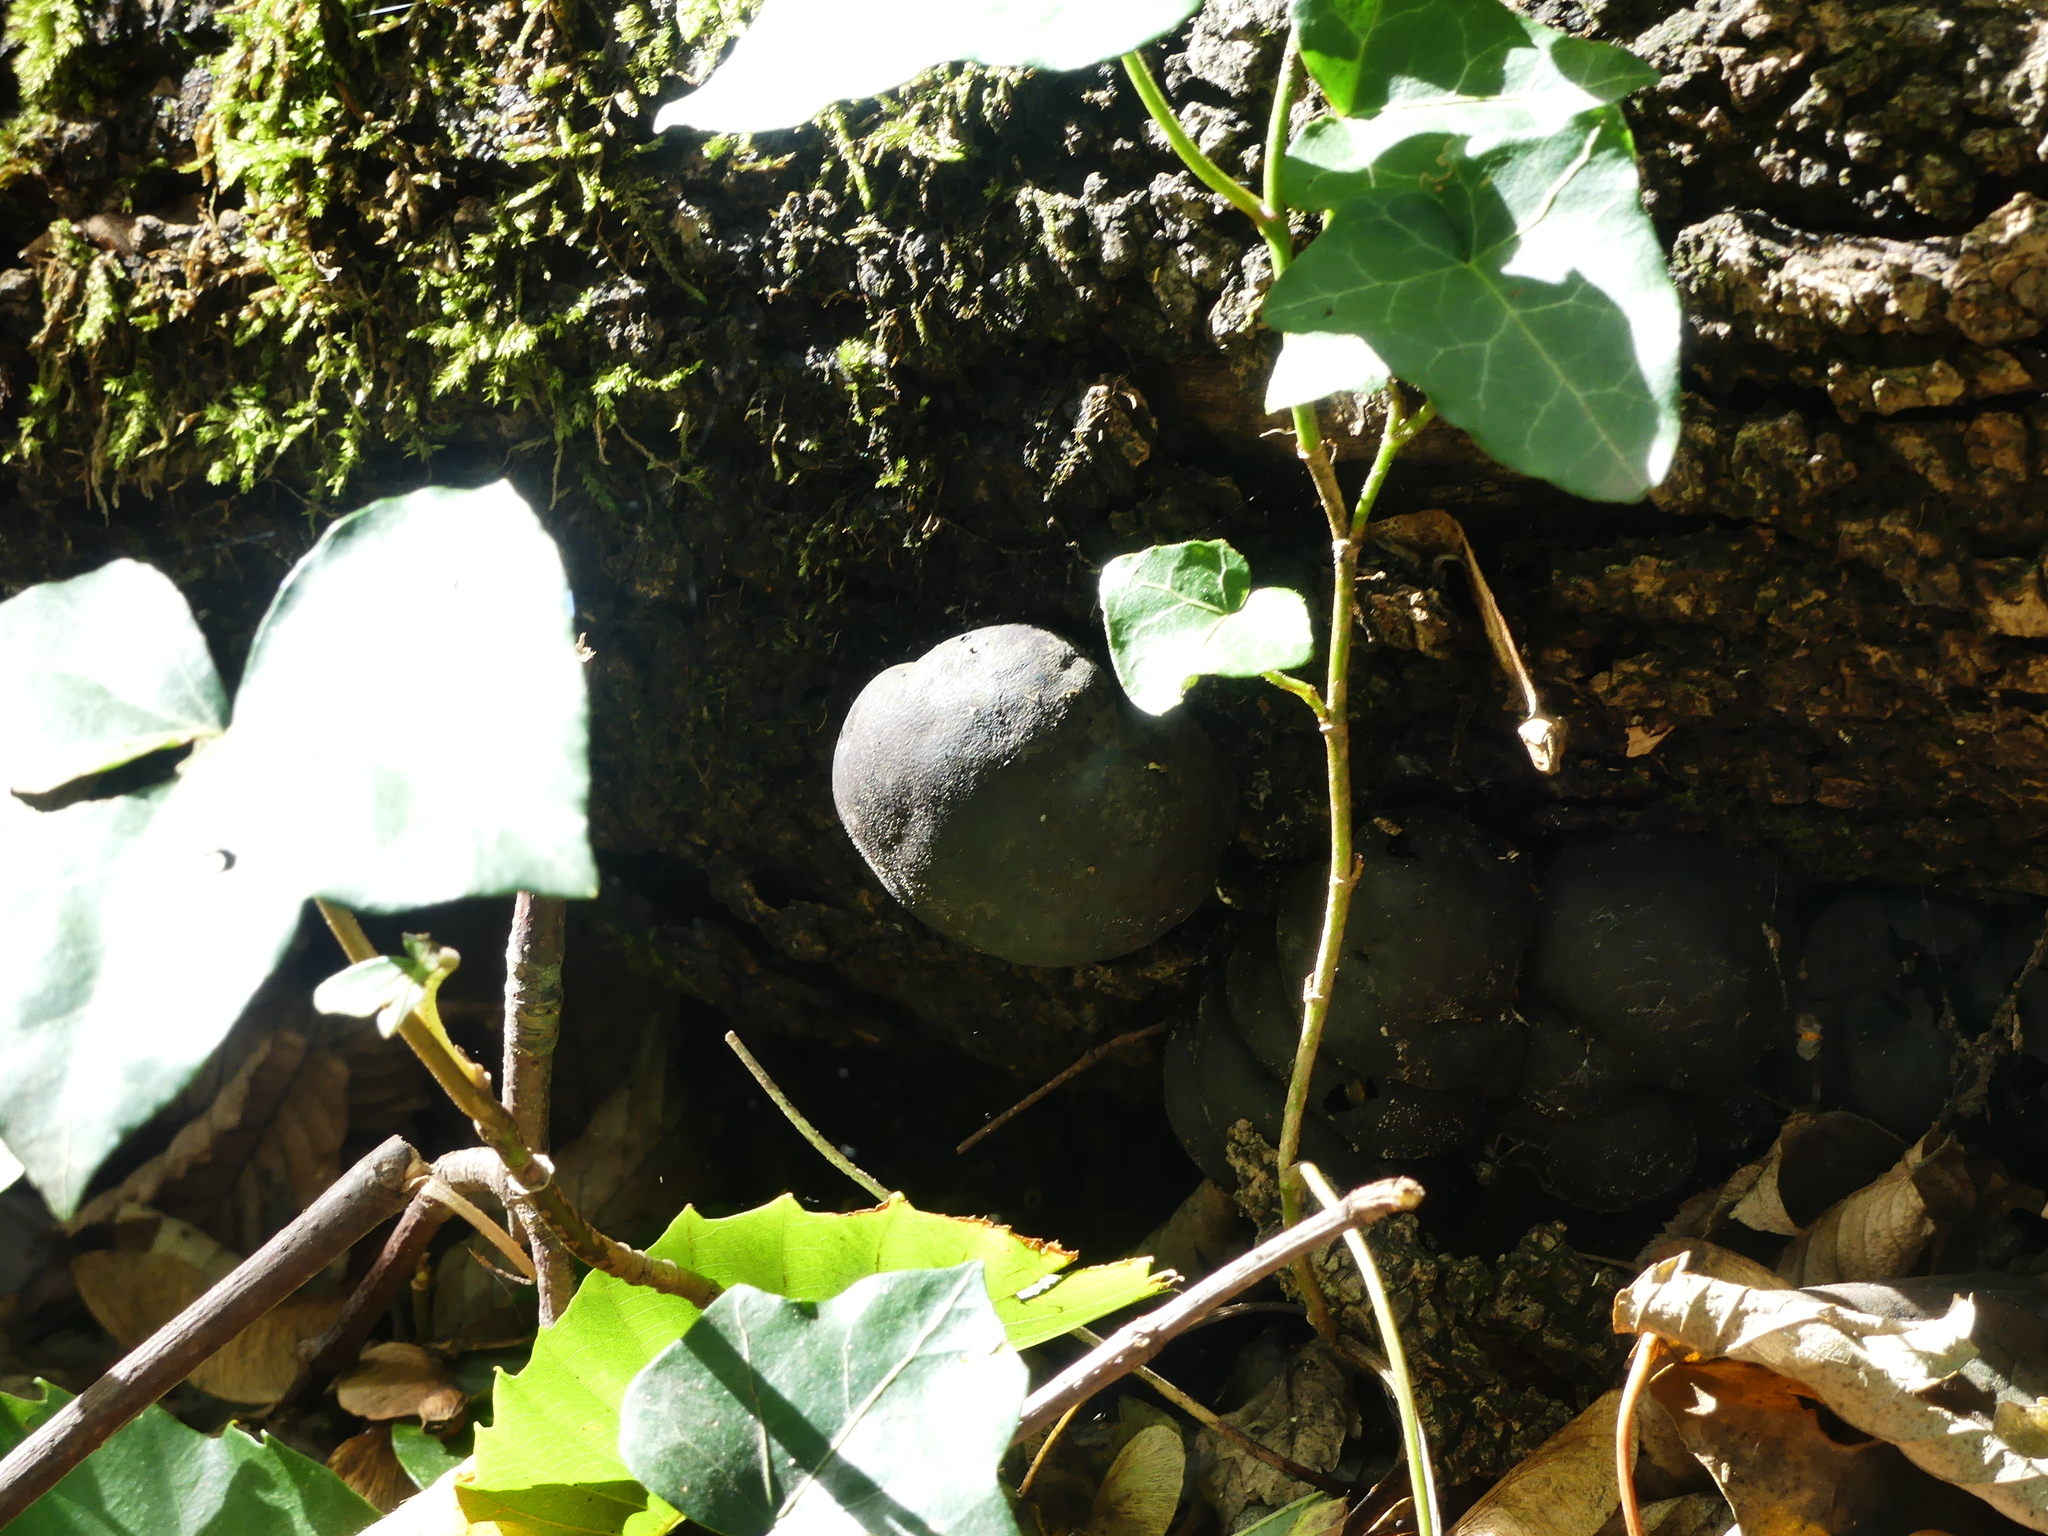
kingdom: Fungi
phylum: Ascomycota
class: Sordariomycetes
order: Xylariales
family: Hypoxylaceae
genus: Daldinia
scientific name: Daldinia concentrica
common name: Cramp balls
